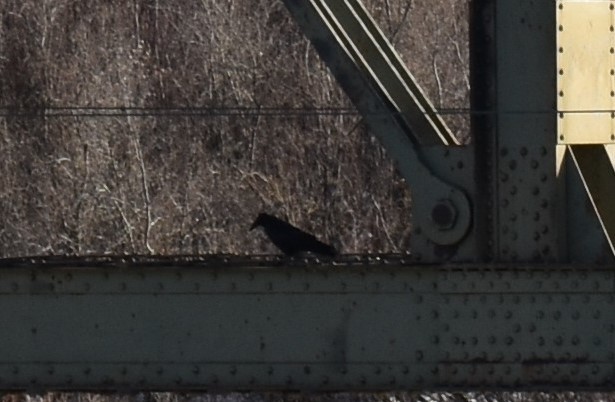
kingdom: Animalia
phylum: Chordata
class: Aves
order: Passeriformes
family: Corvidae
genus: Corvus
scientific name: Corvus corax
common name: Common raven
